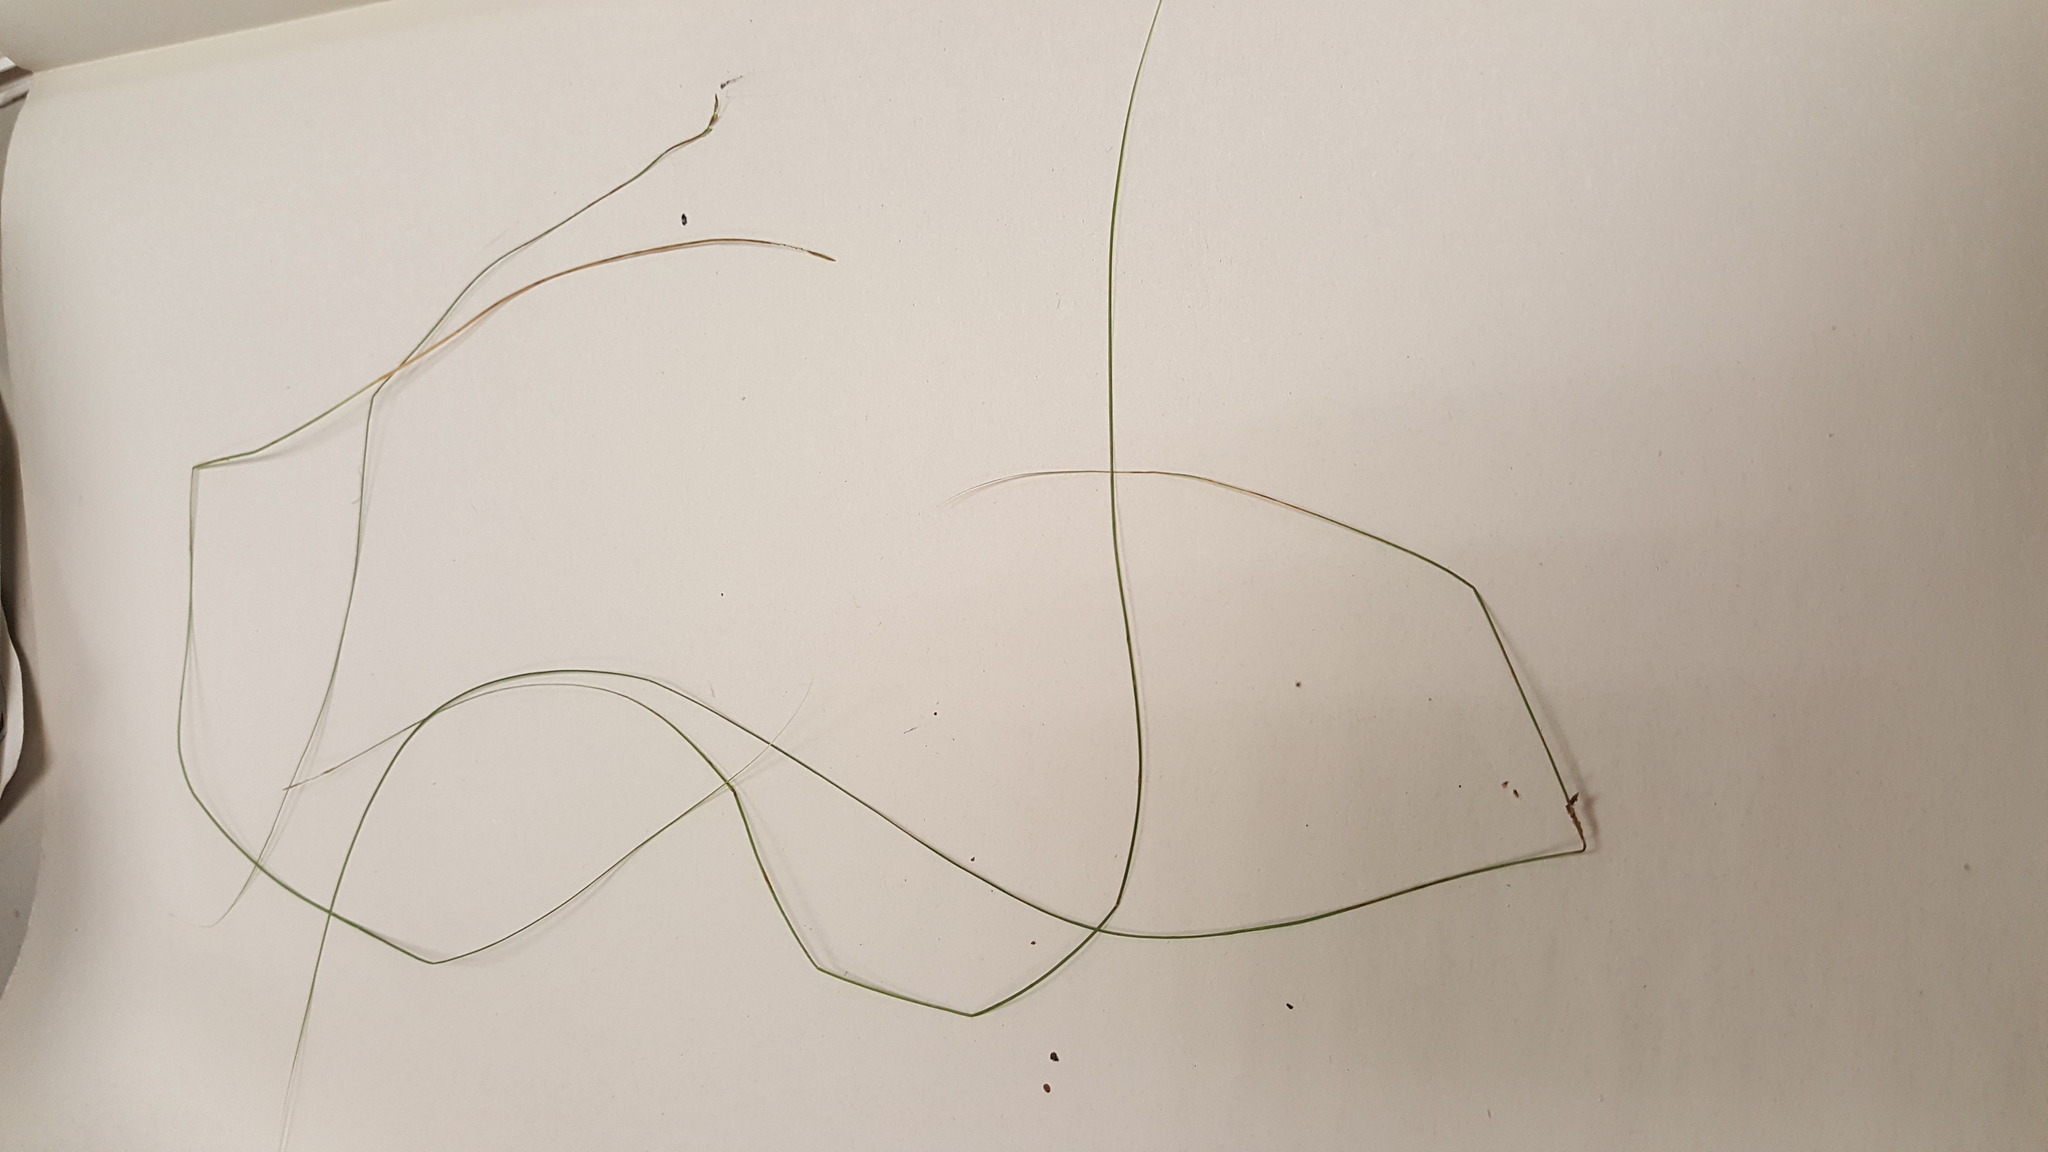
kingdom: Plantae
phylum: Tracheophyta
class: Liliopsida
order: Poales
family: Cyperaceae
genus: Carex
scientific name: Carex leptalea
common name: Bristly-stalked sedge
